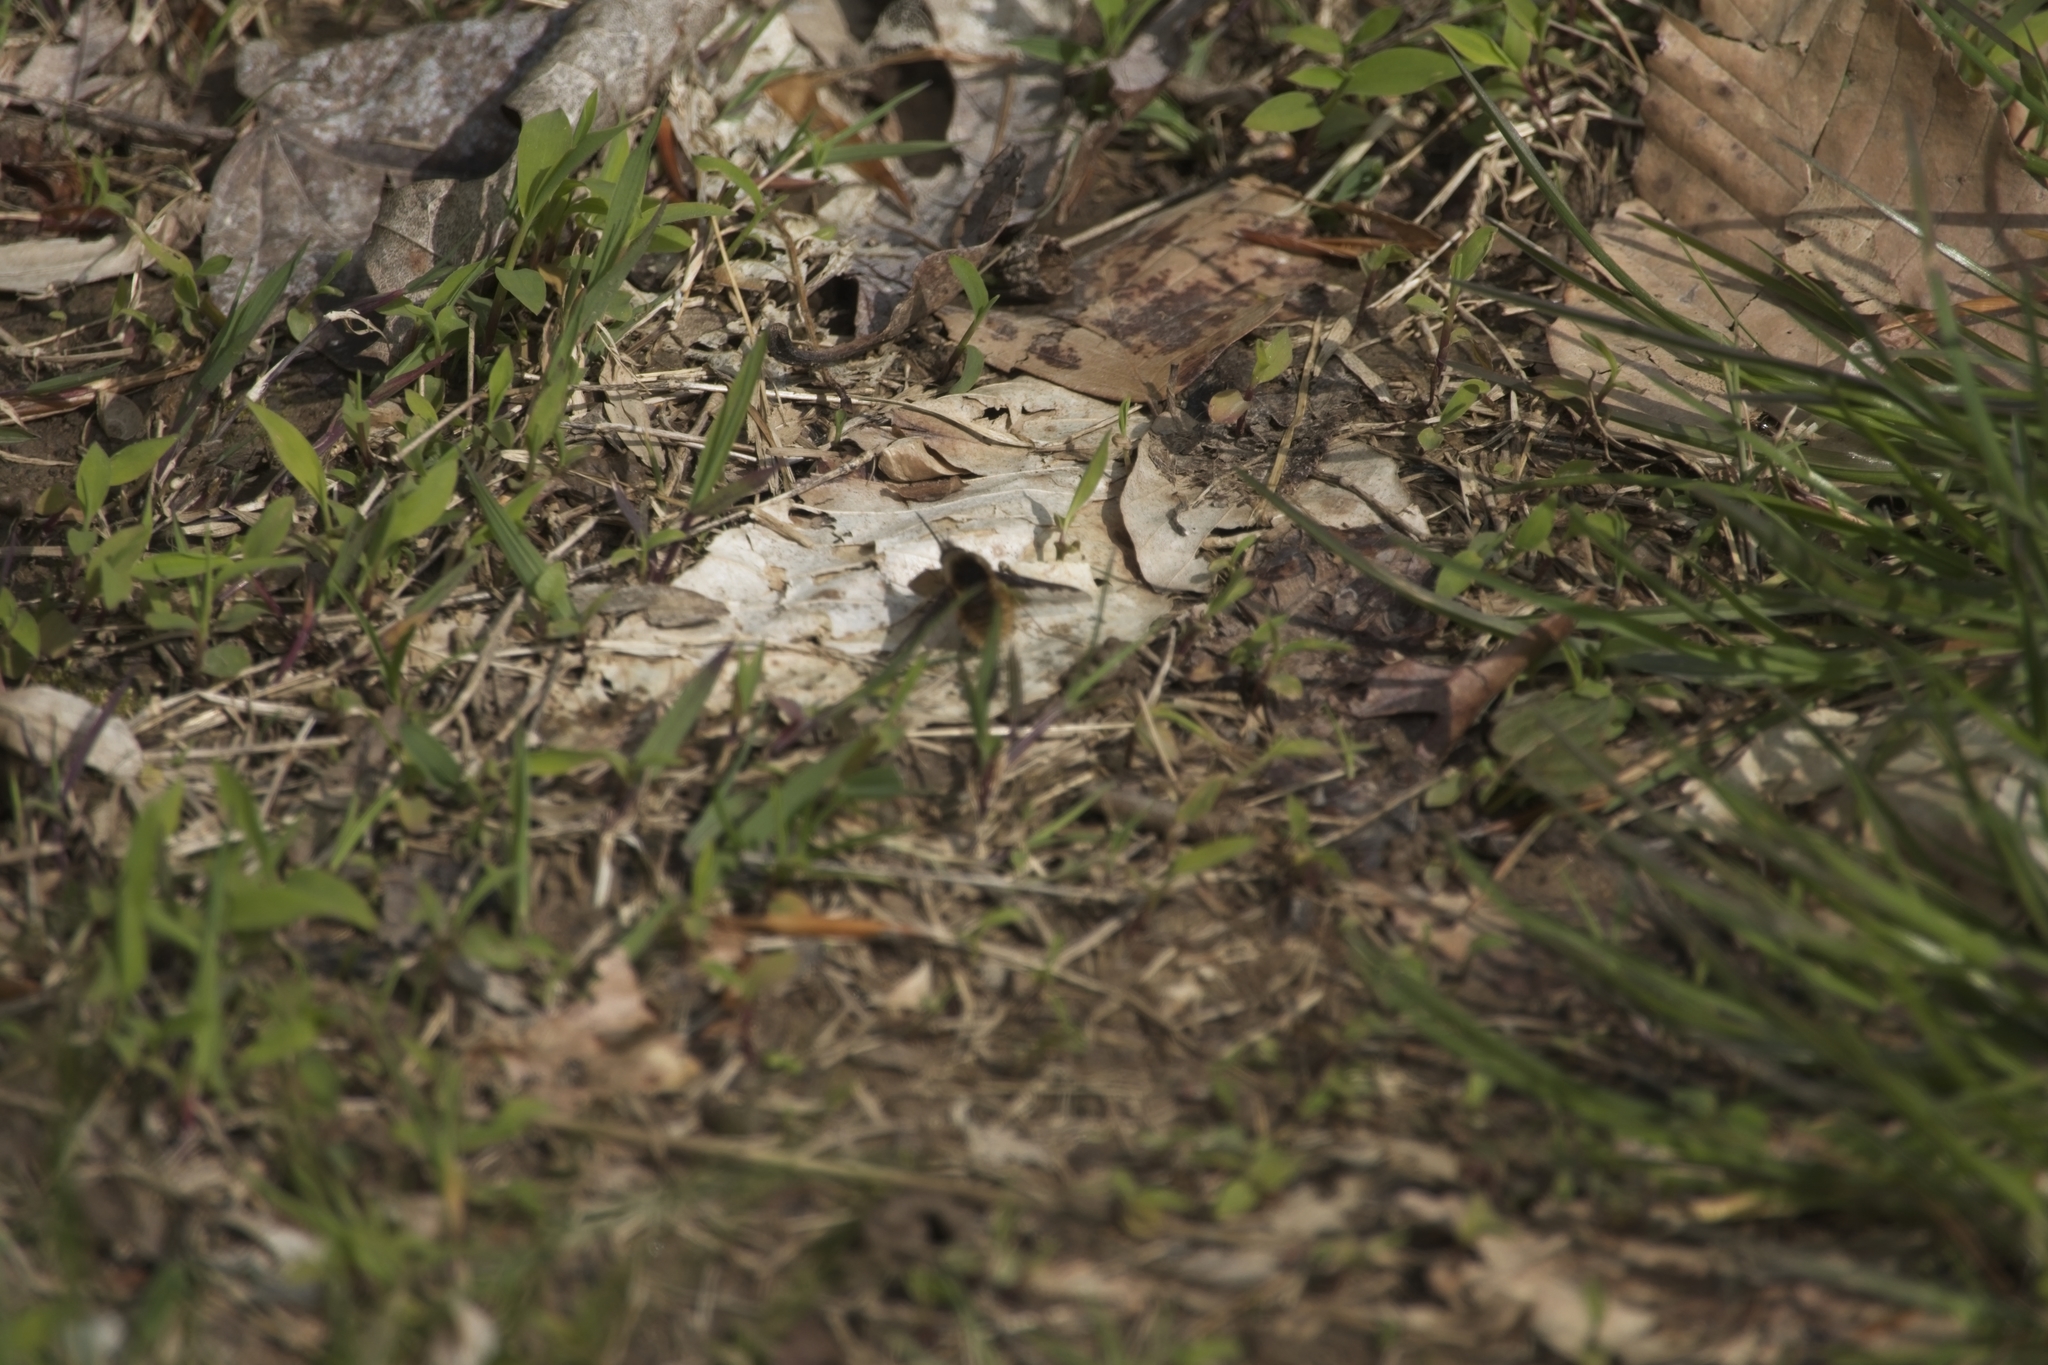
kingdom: Animalia
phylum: Arthropoda
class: Insecta
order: Diptera
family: Bombyliidae
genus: Bombylius
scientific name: Bombylius major
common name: Bee fly
